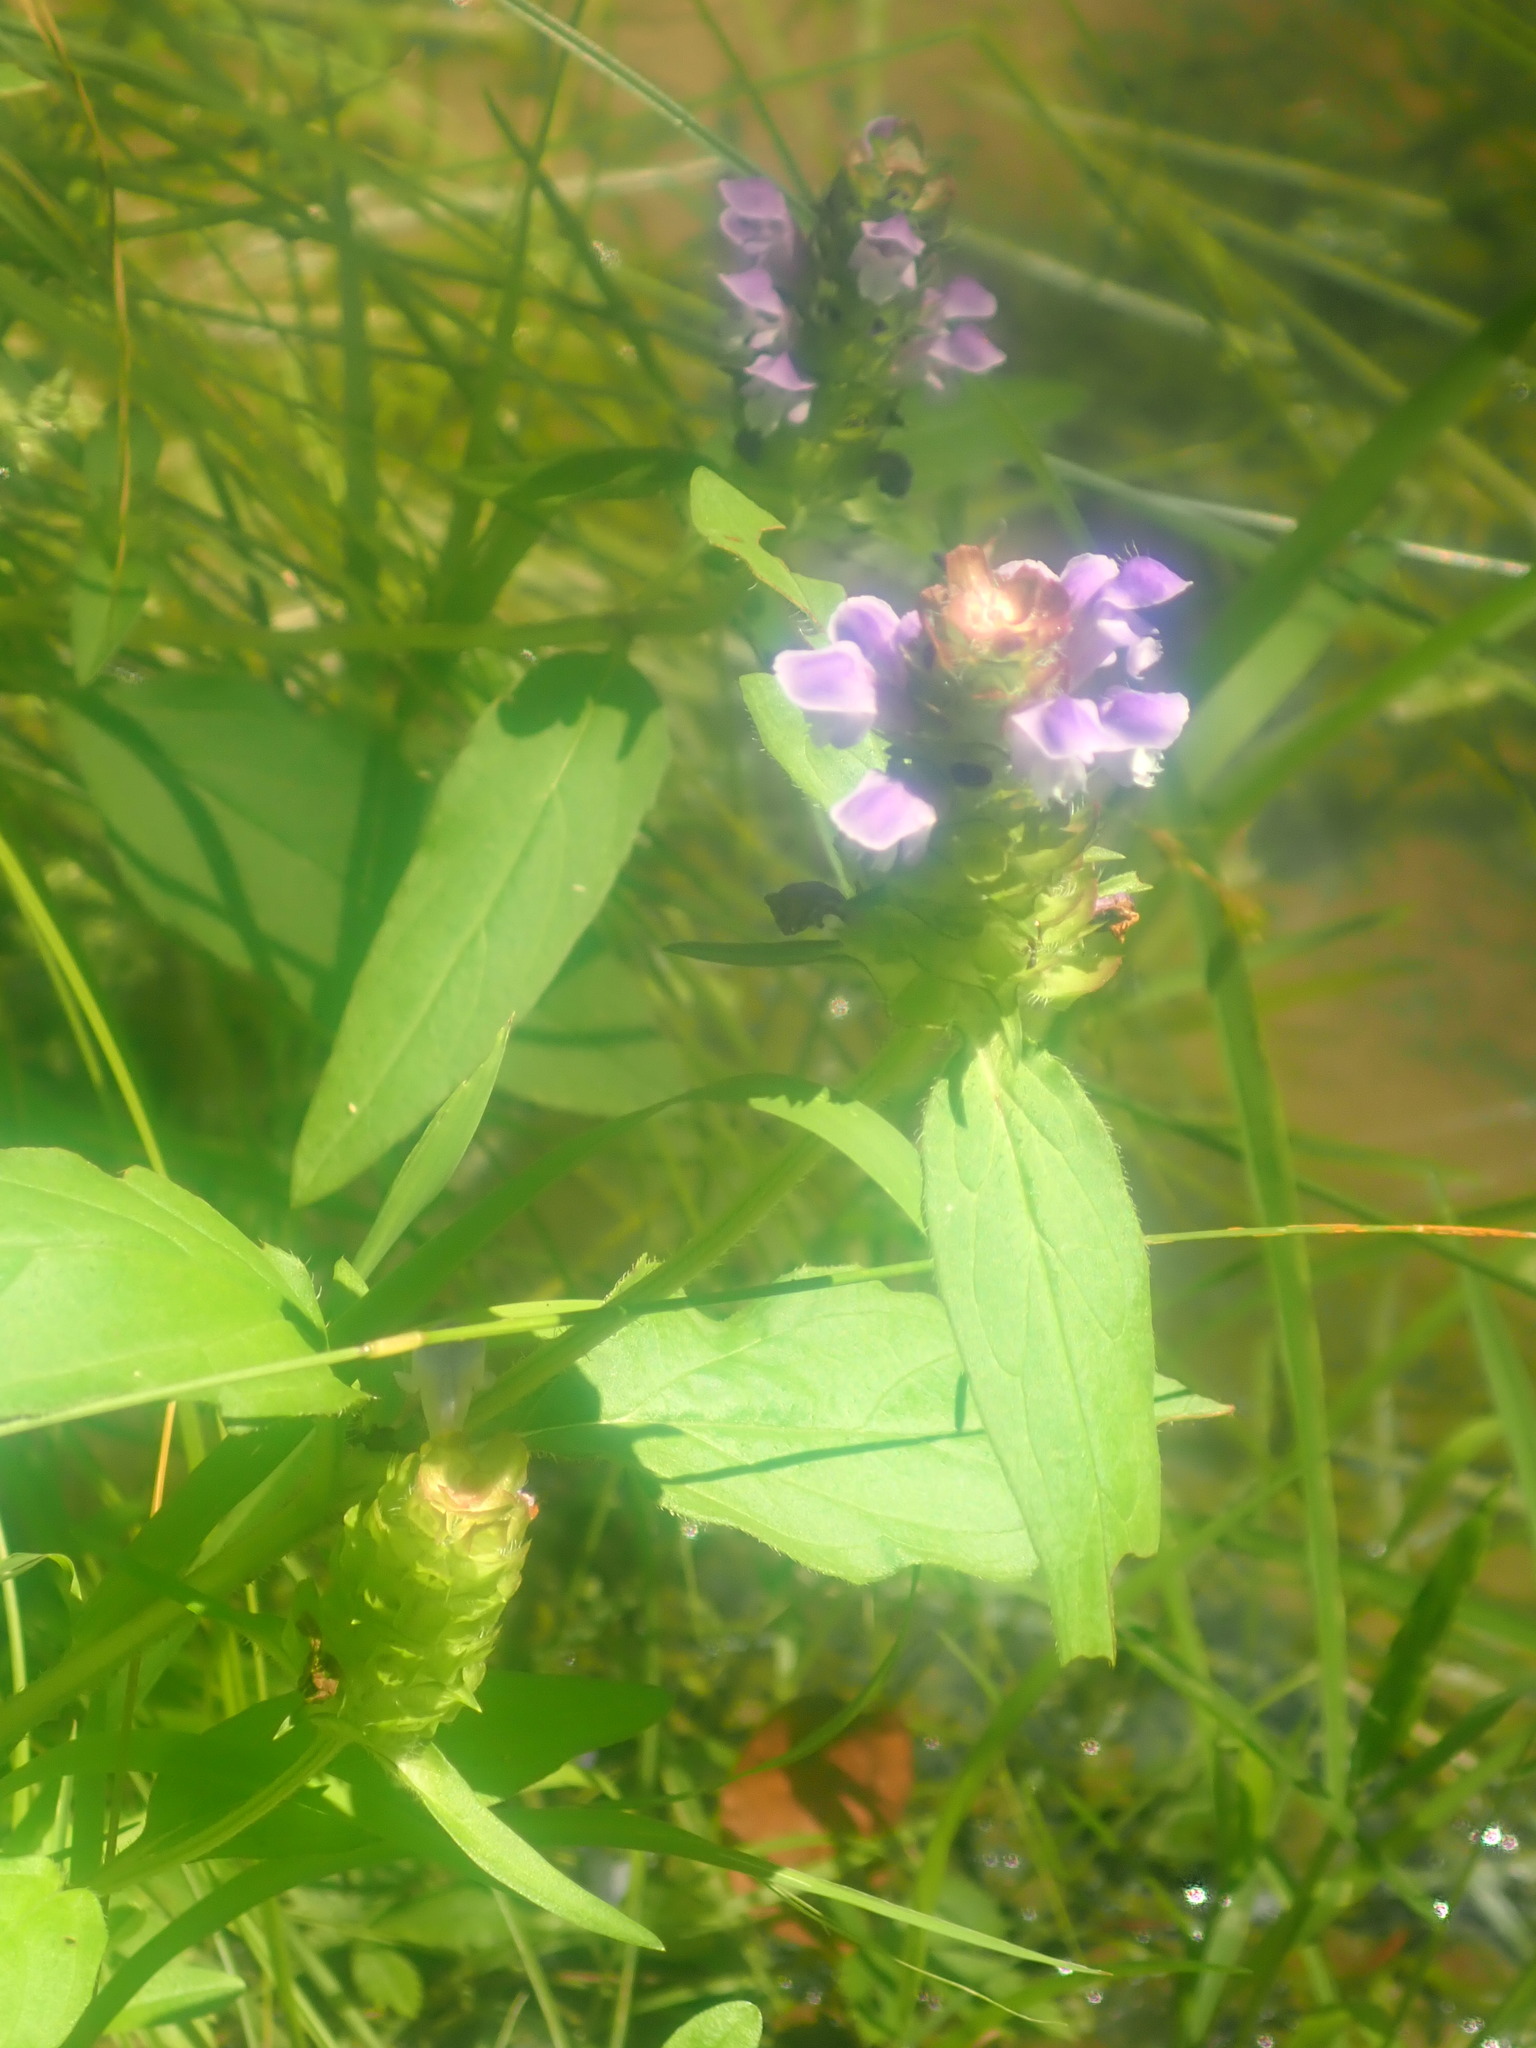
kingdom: Plantae
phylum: Tracheophyta
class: Magnoliopsida
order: Lamiales
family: Lamiaceae
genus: Prunella
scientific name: Prunella vulgaris
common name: Heal-all
